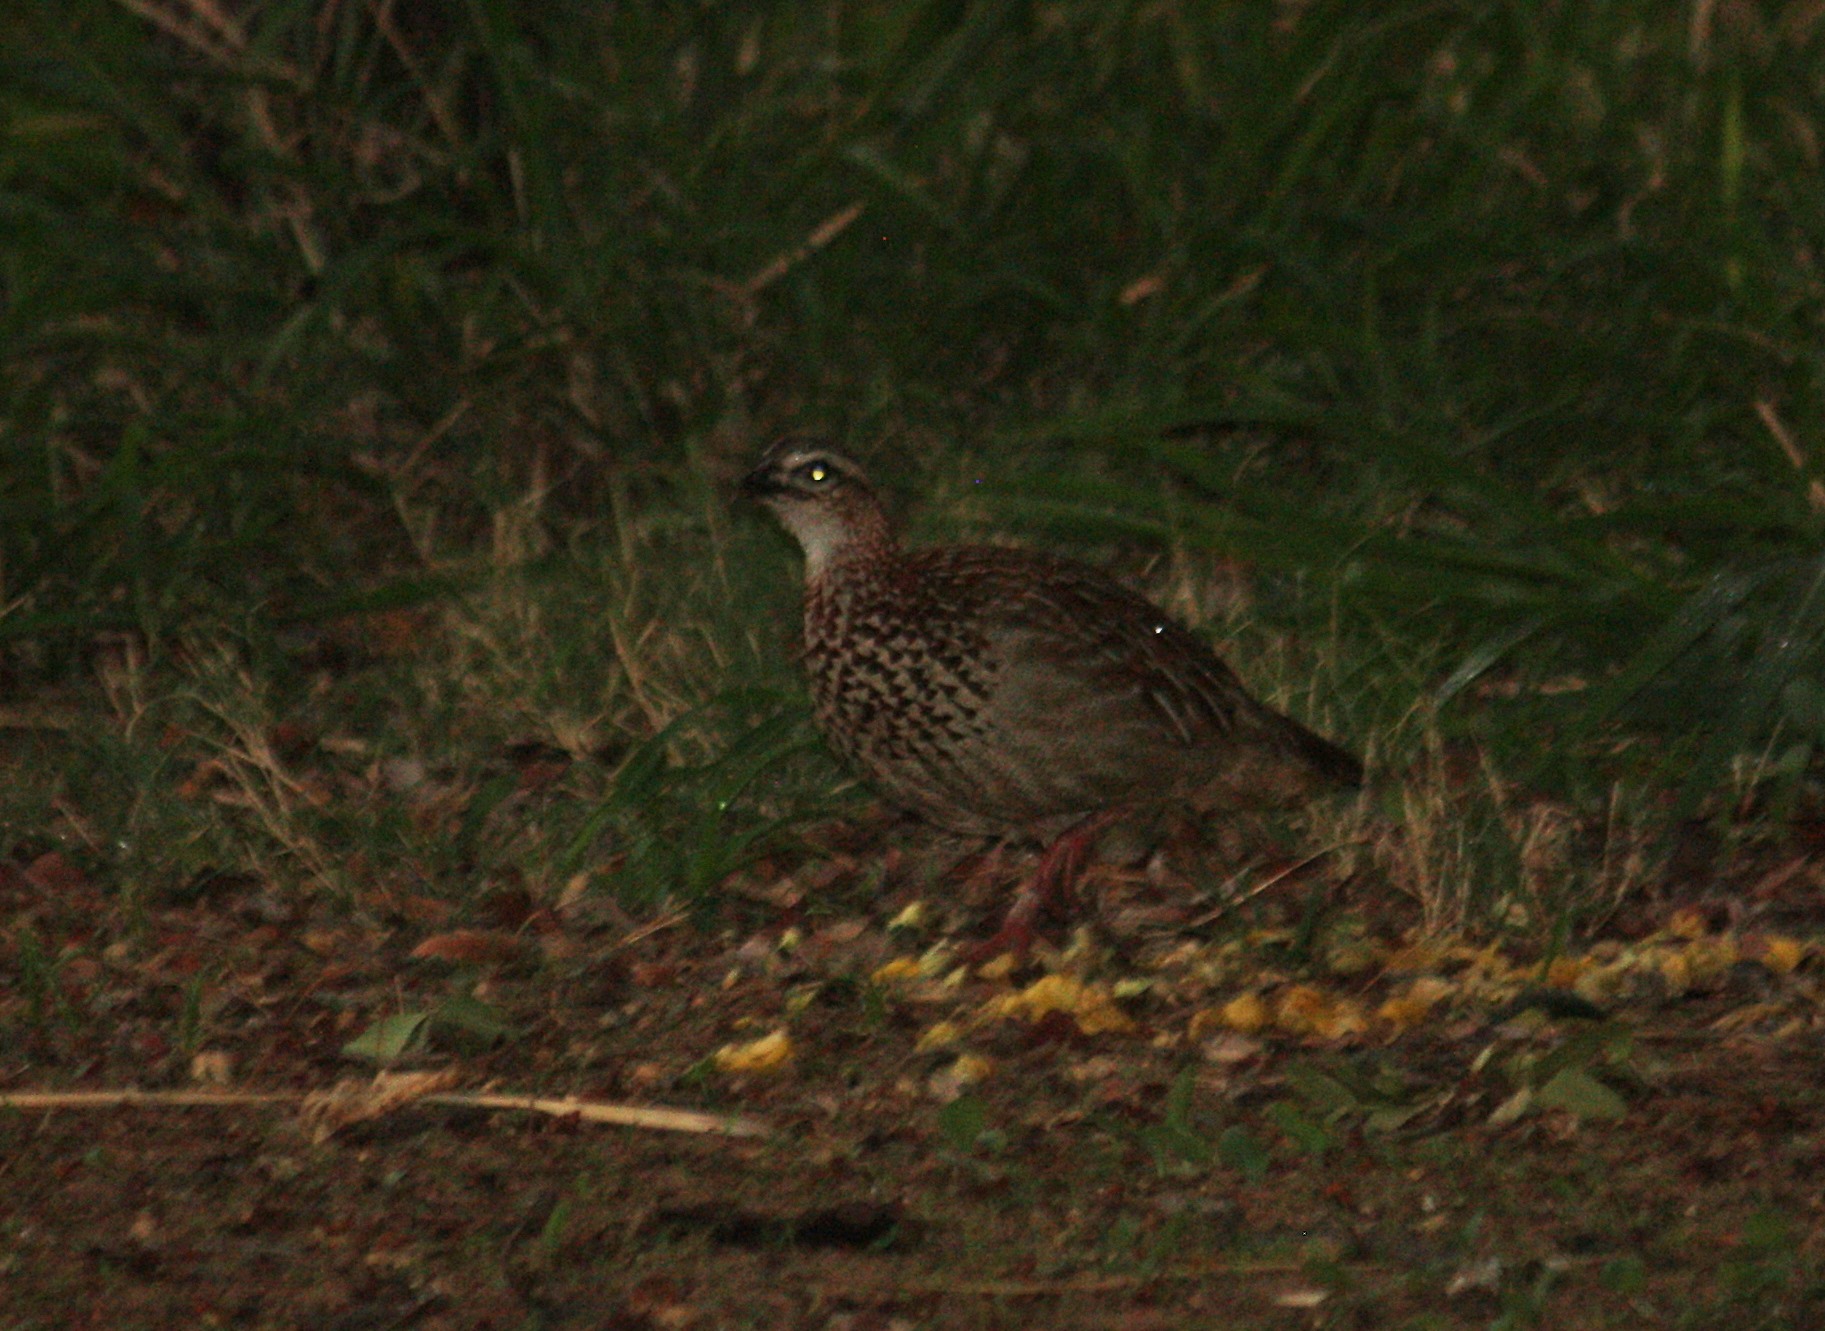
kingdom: Animalia
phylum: Chordata
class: Aves
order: Galliformes
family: Phasianidae
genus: Ortygornis
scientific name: Ortygornis sephaena
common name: Crested francolin
